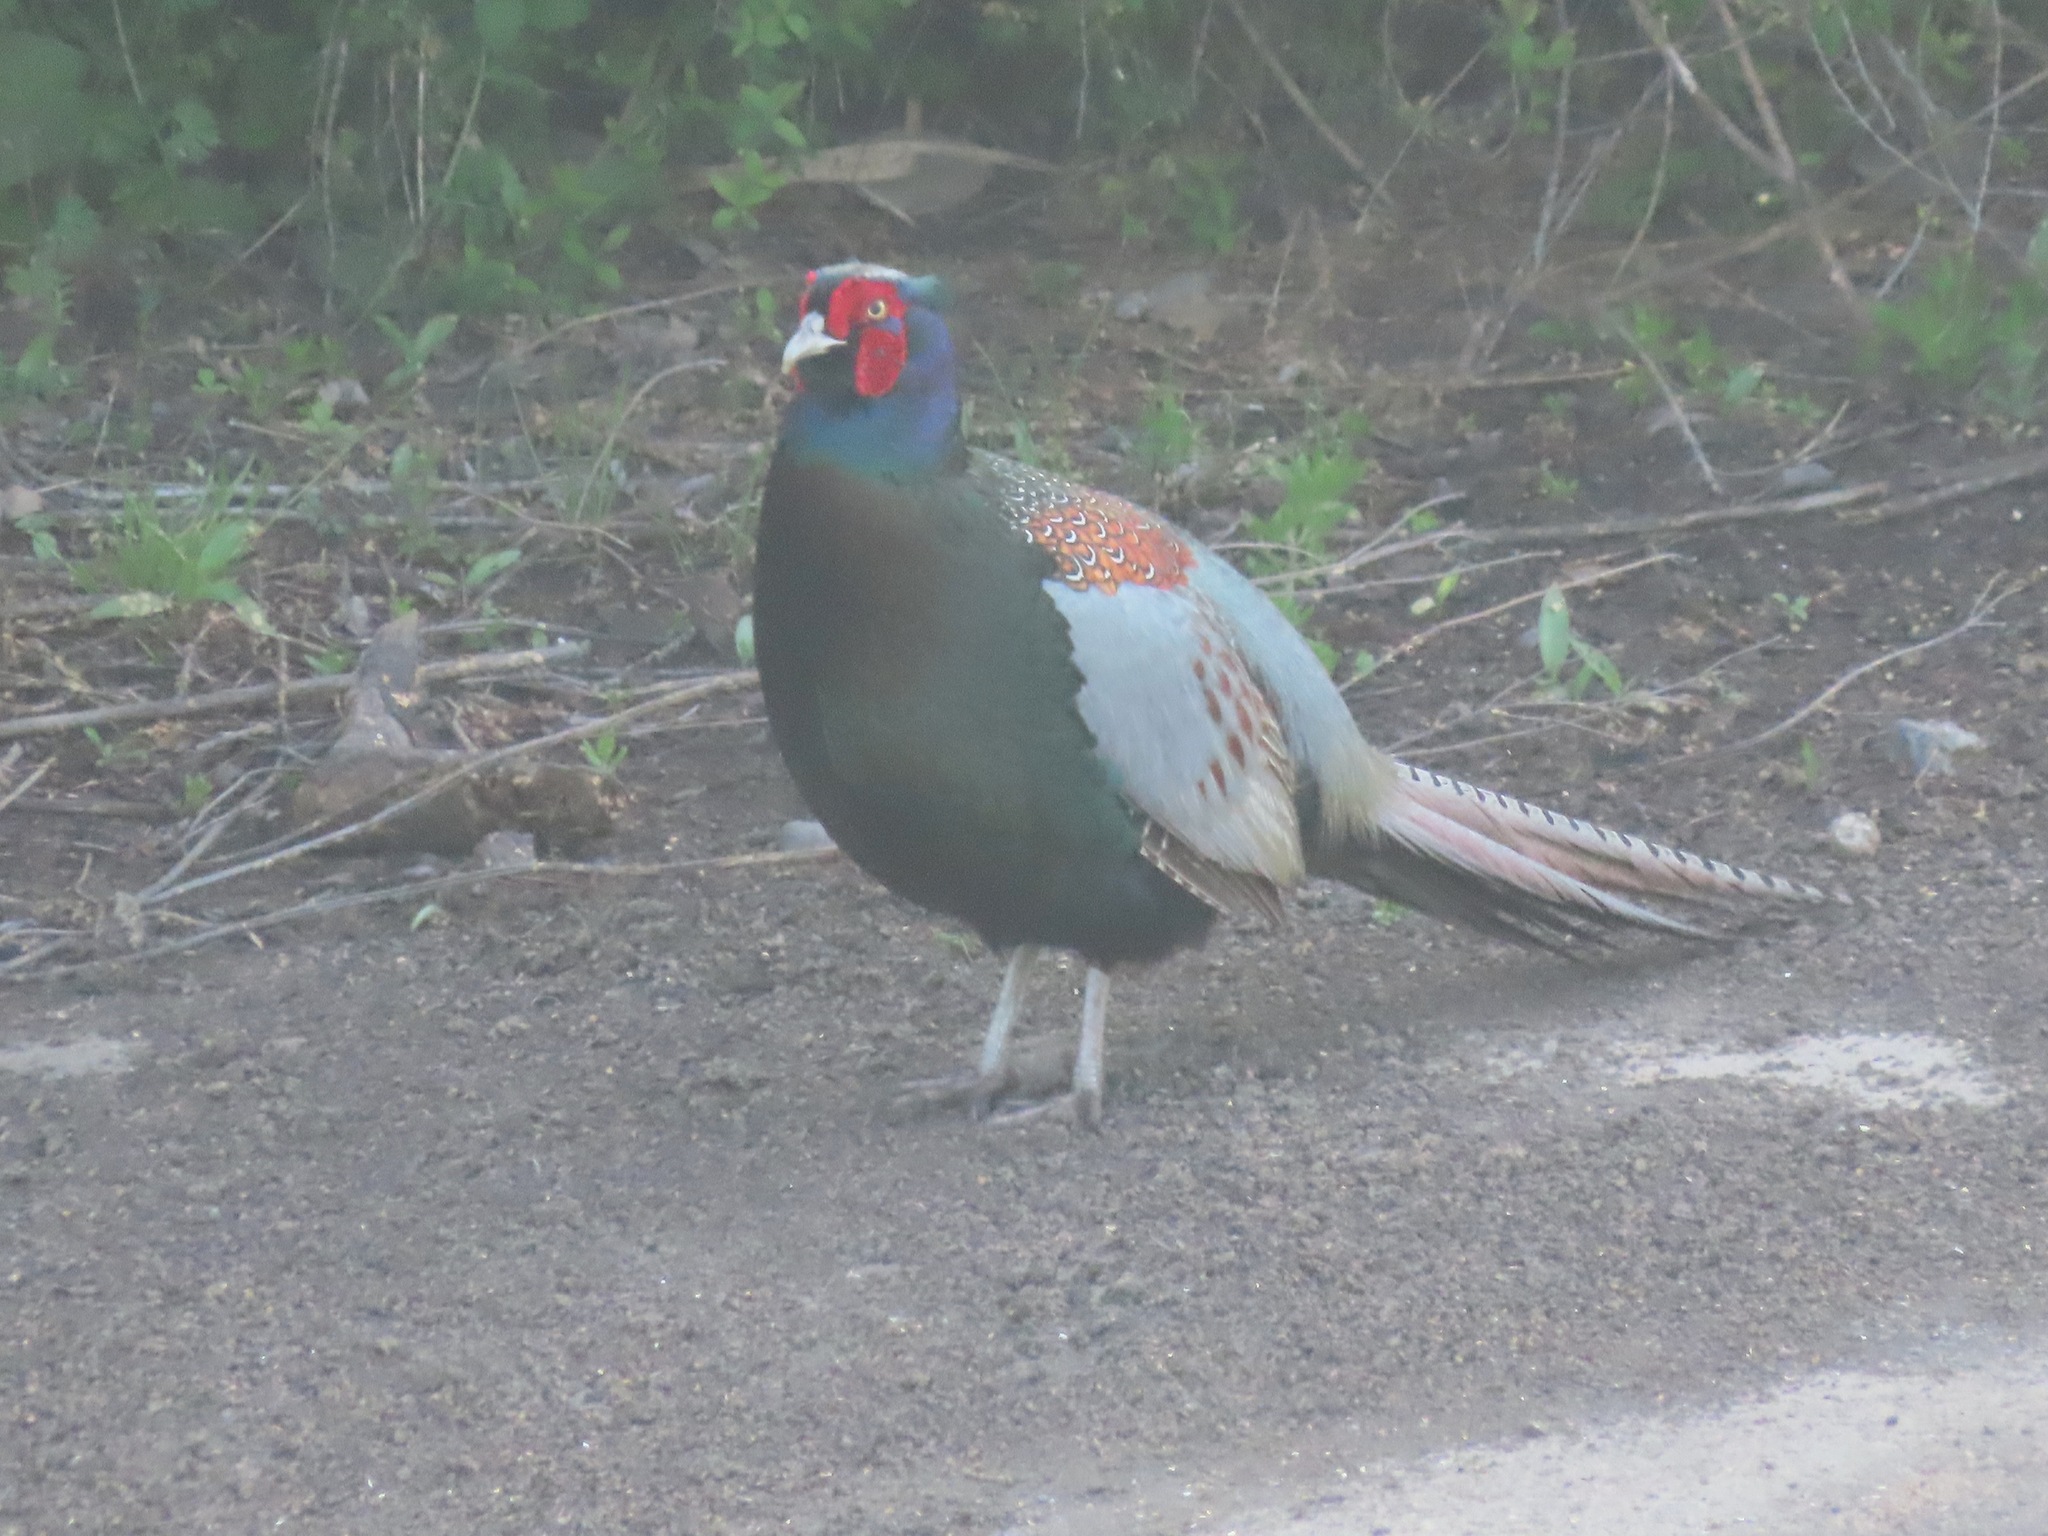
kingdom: Animalia
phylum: Chordata
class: Aves
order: Galliformes
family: Phasianidae
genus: Phasianus
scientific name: Phasianus versicolor
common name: Green pheasant
